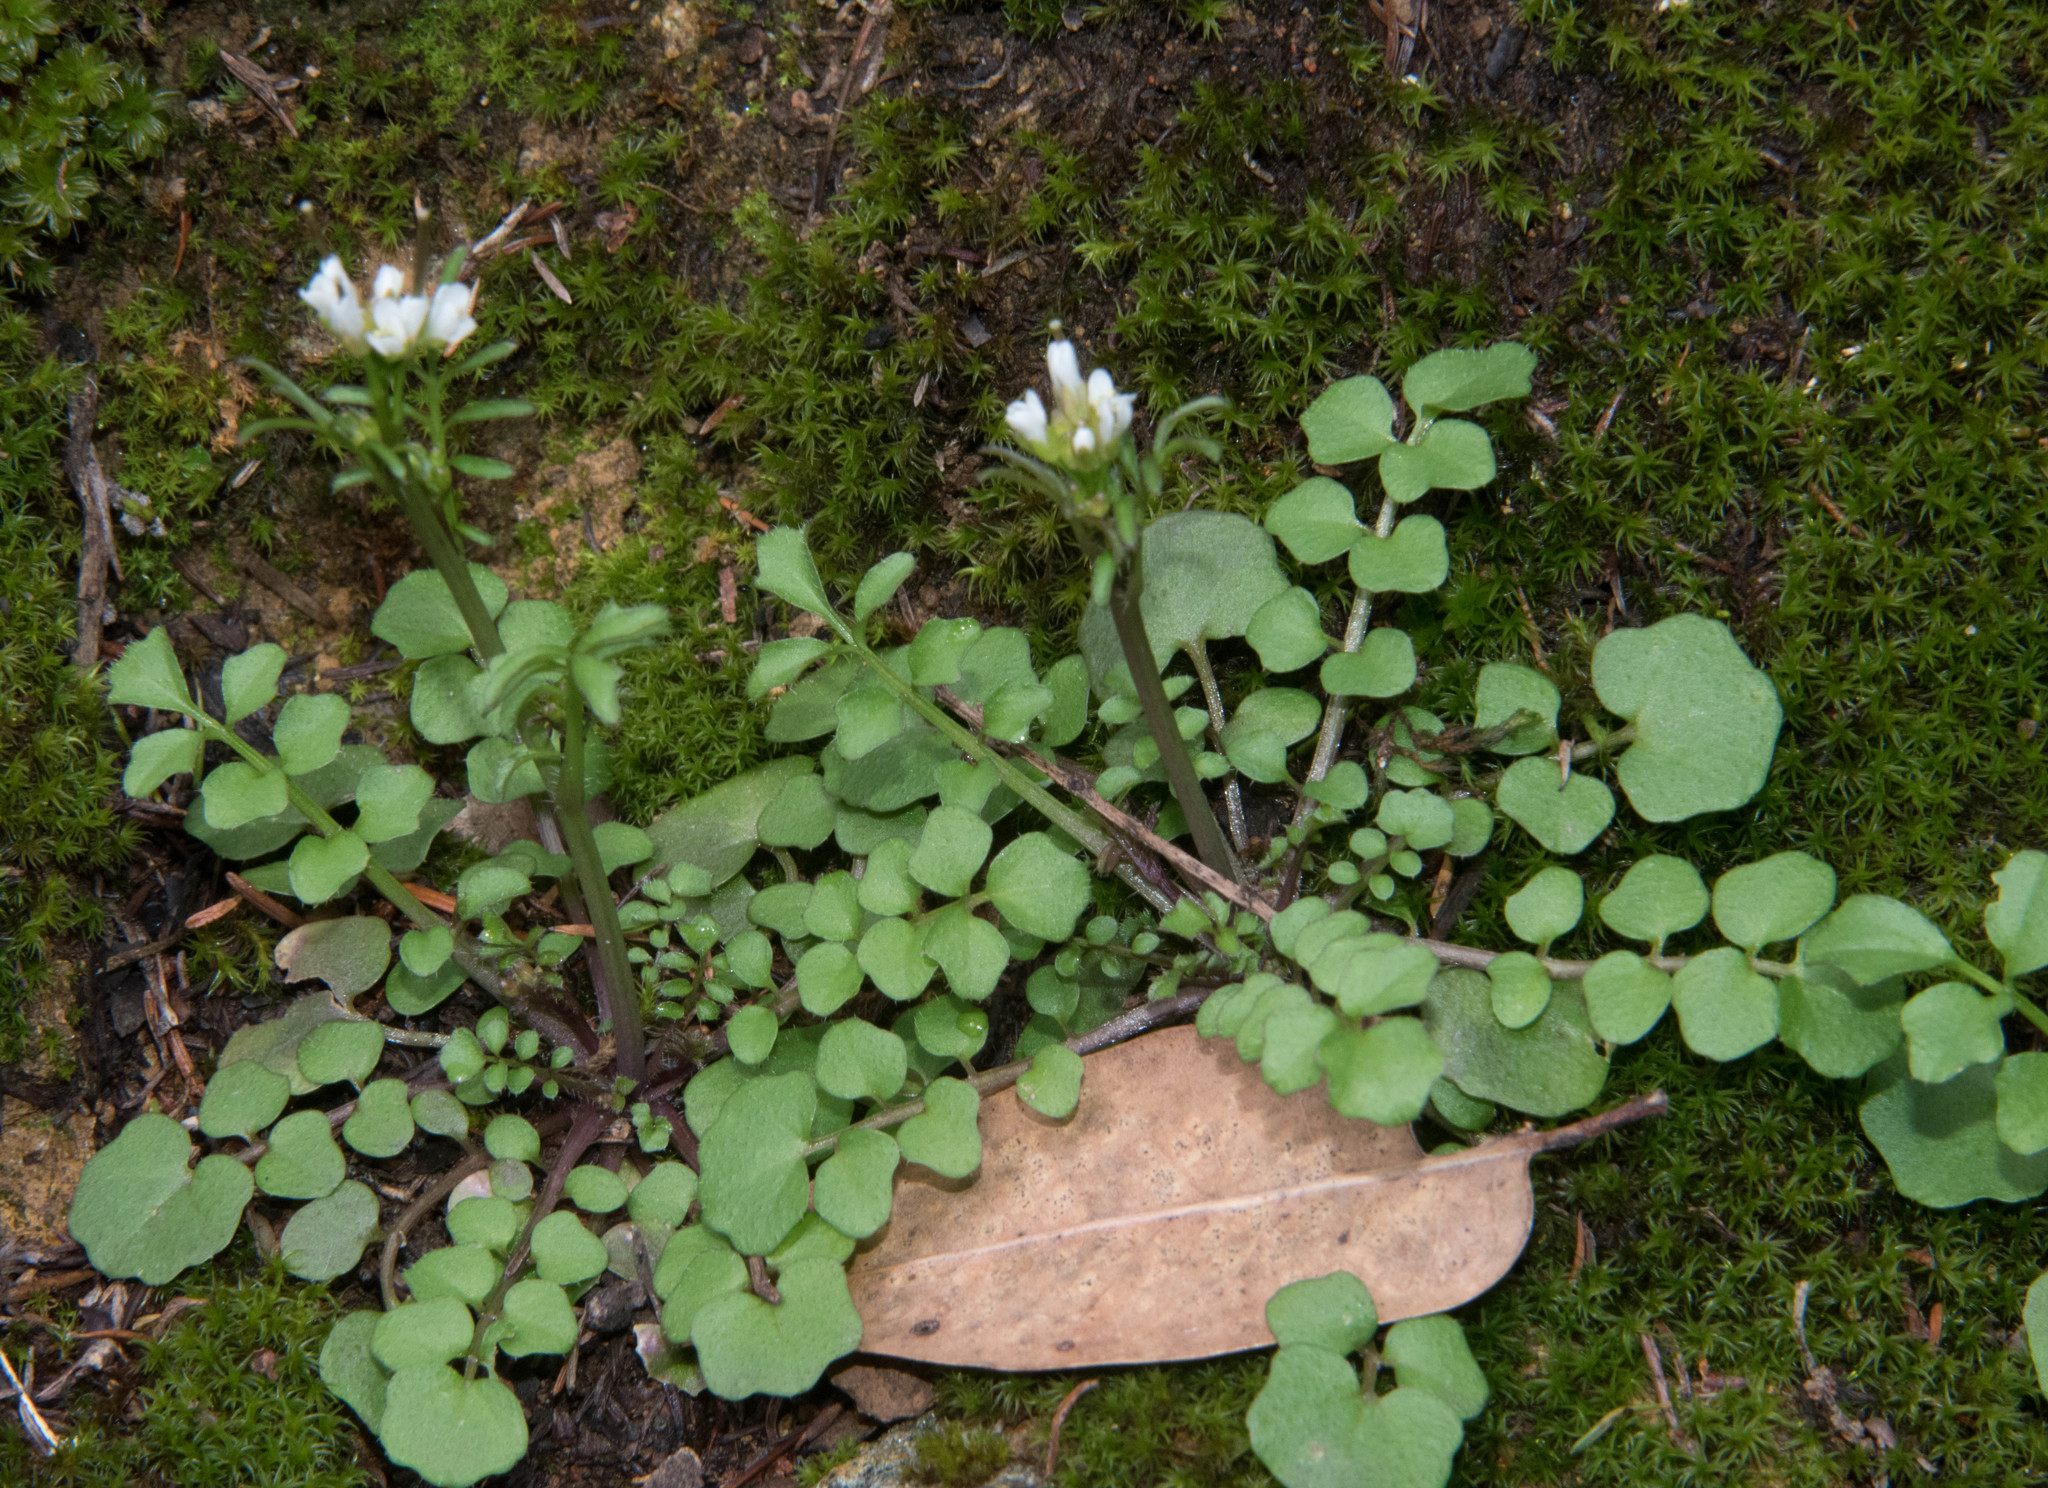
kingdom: Plantae
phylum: Tracheophyta
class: Magnoliopsida
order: Brassicales
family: Brassicaceae
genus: Cardamine
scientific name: Cardamine hirsuta
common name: Hairy bittercress
